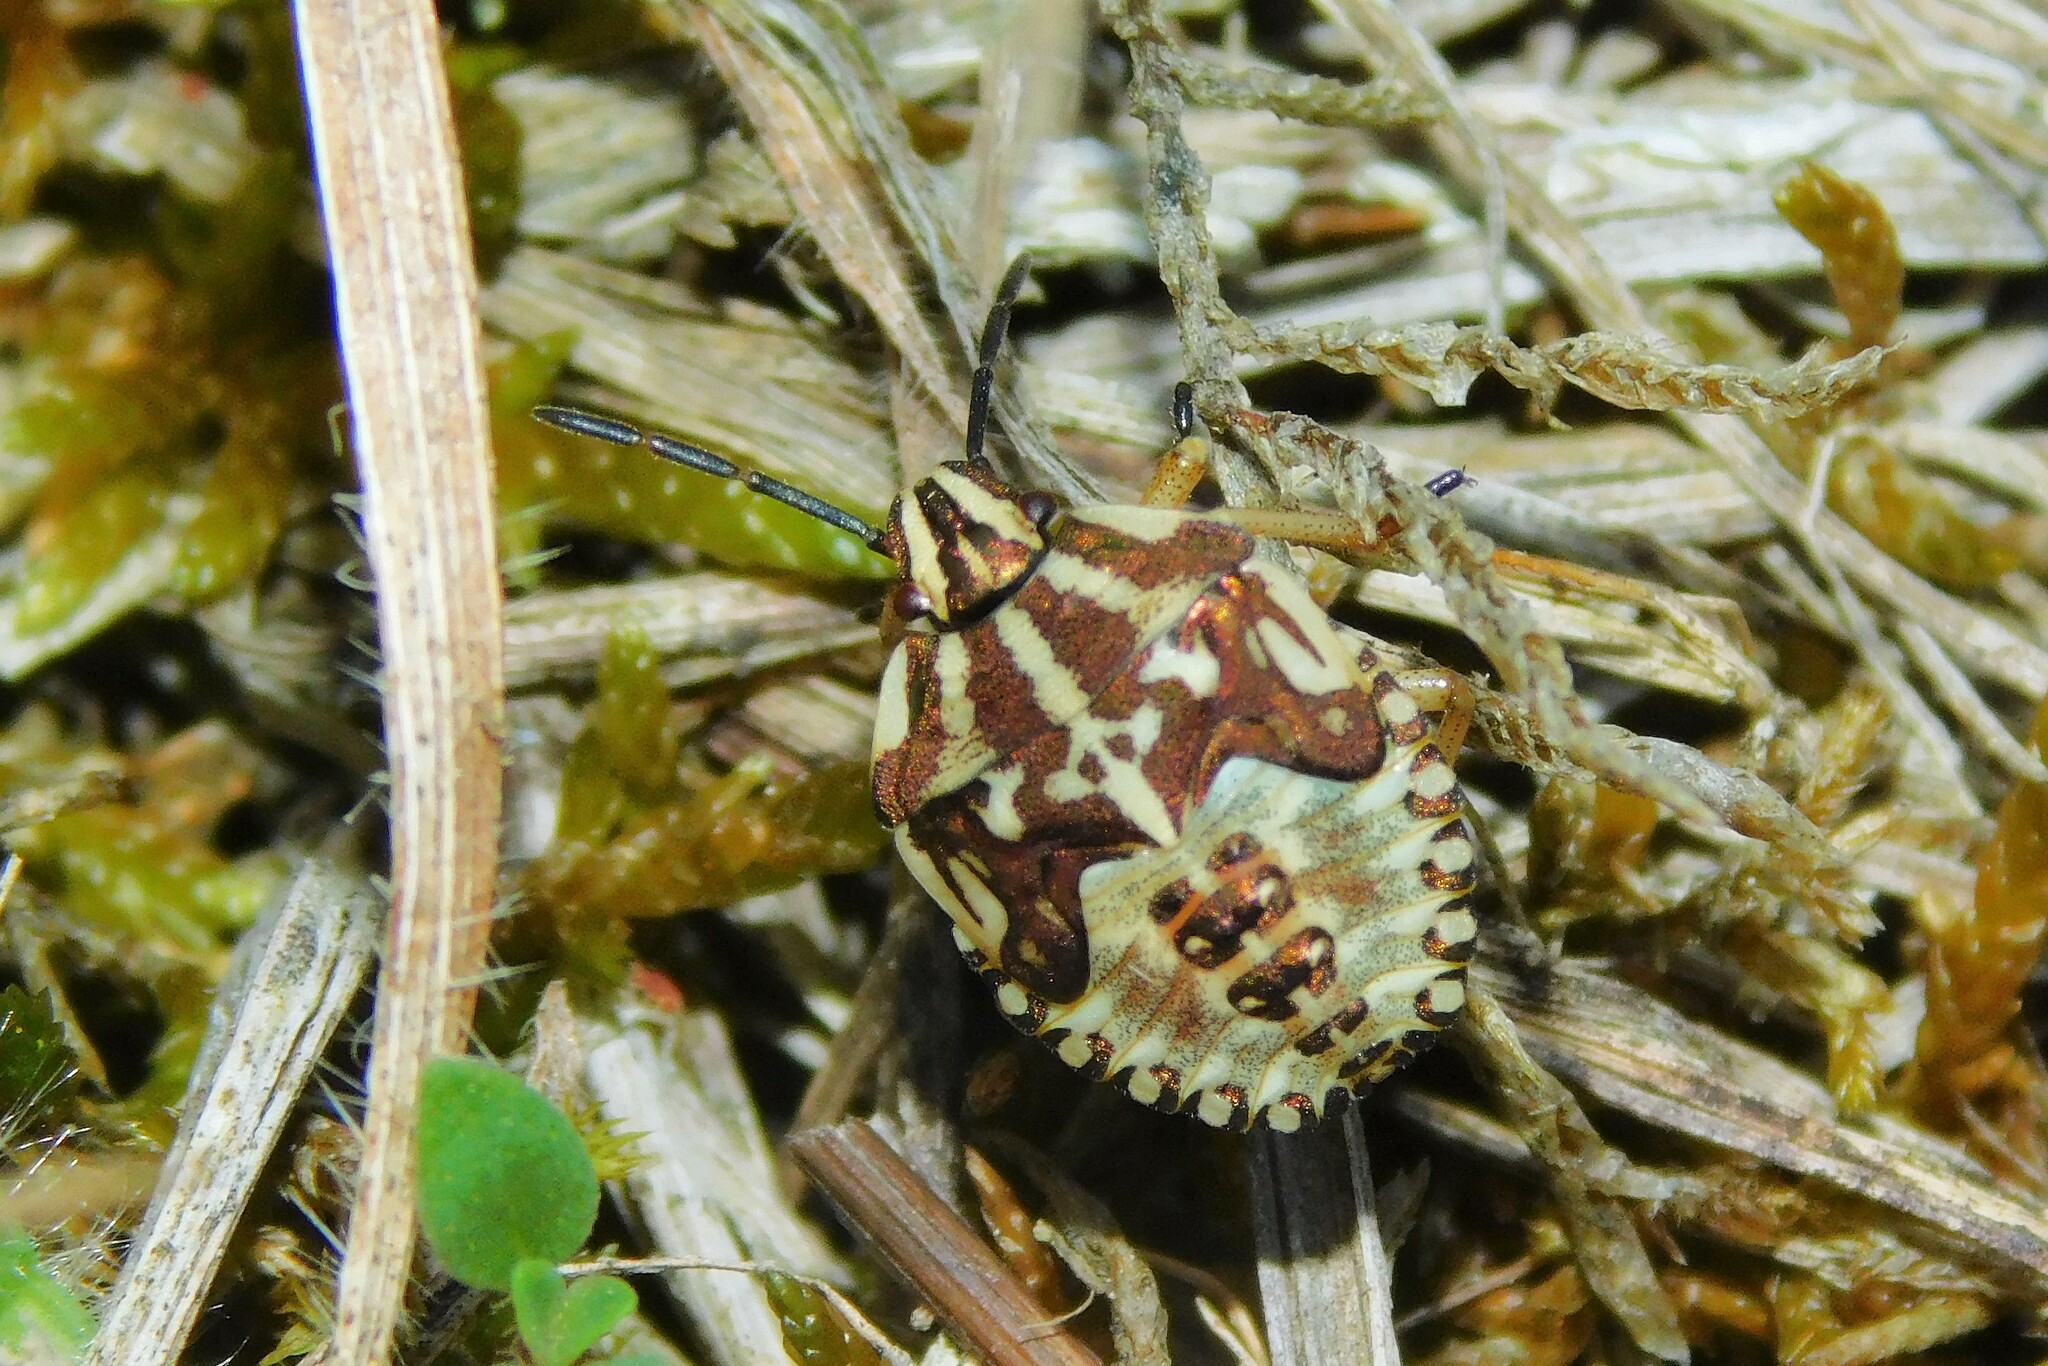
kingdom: Animalia
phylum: Arthropoda
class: Insecta
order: Hemiptera
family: Pentatomidae
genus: Carpocoris
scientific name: Carpocoris purpureipennis
